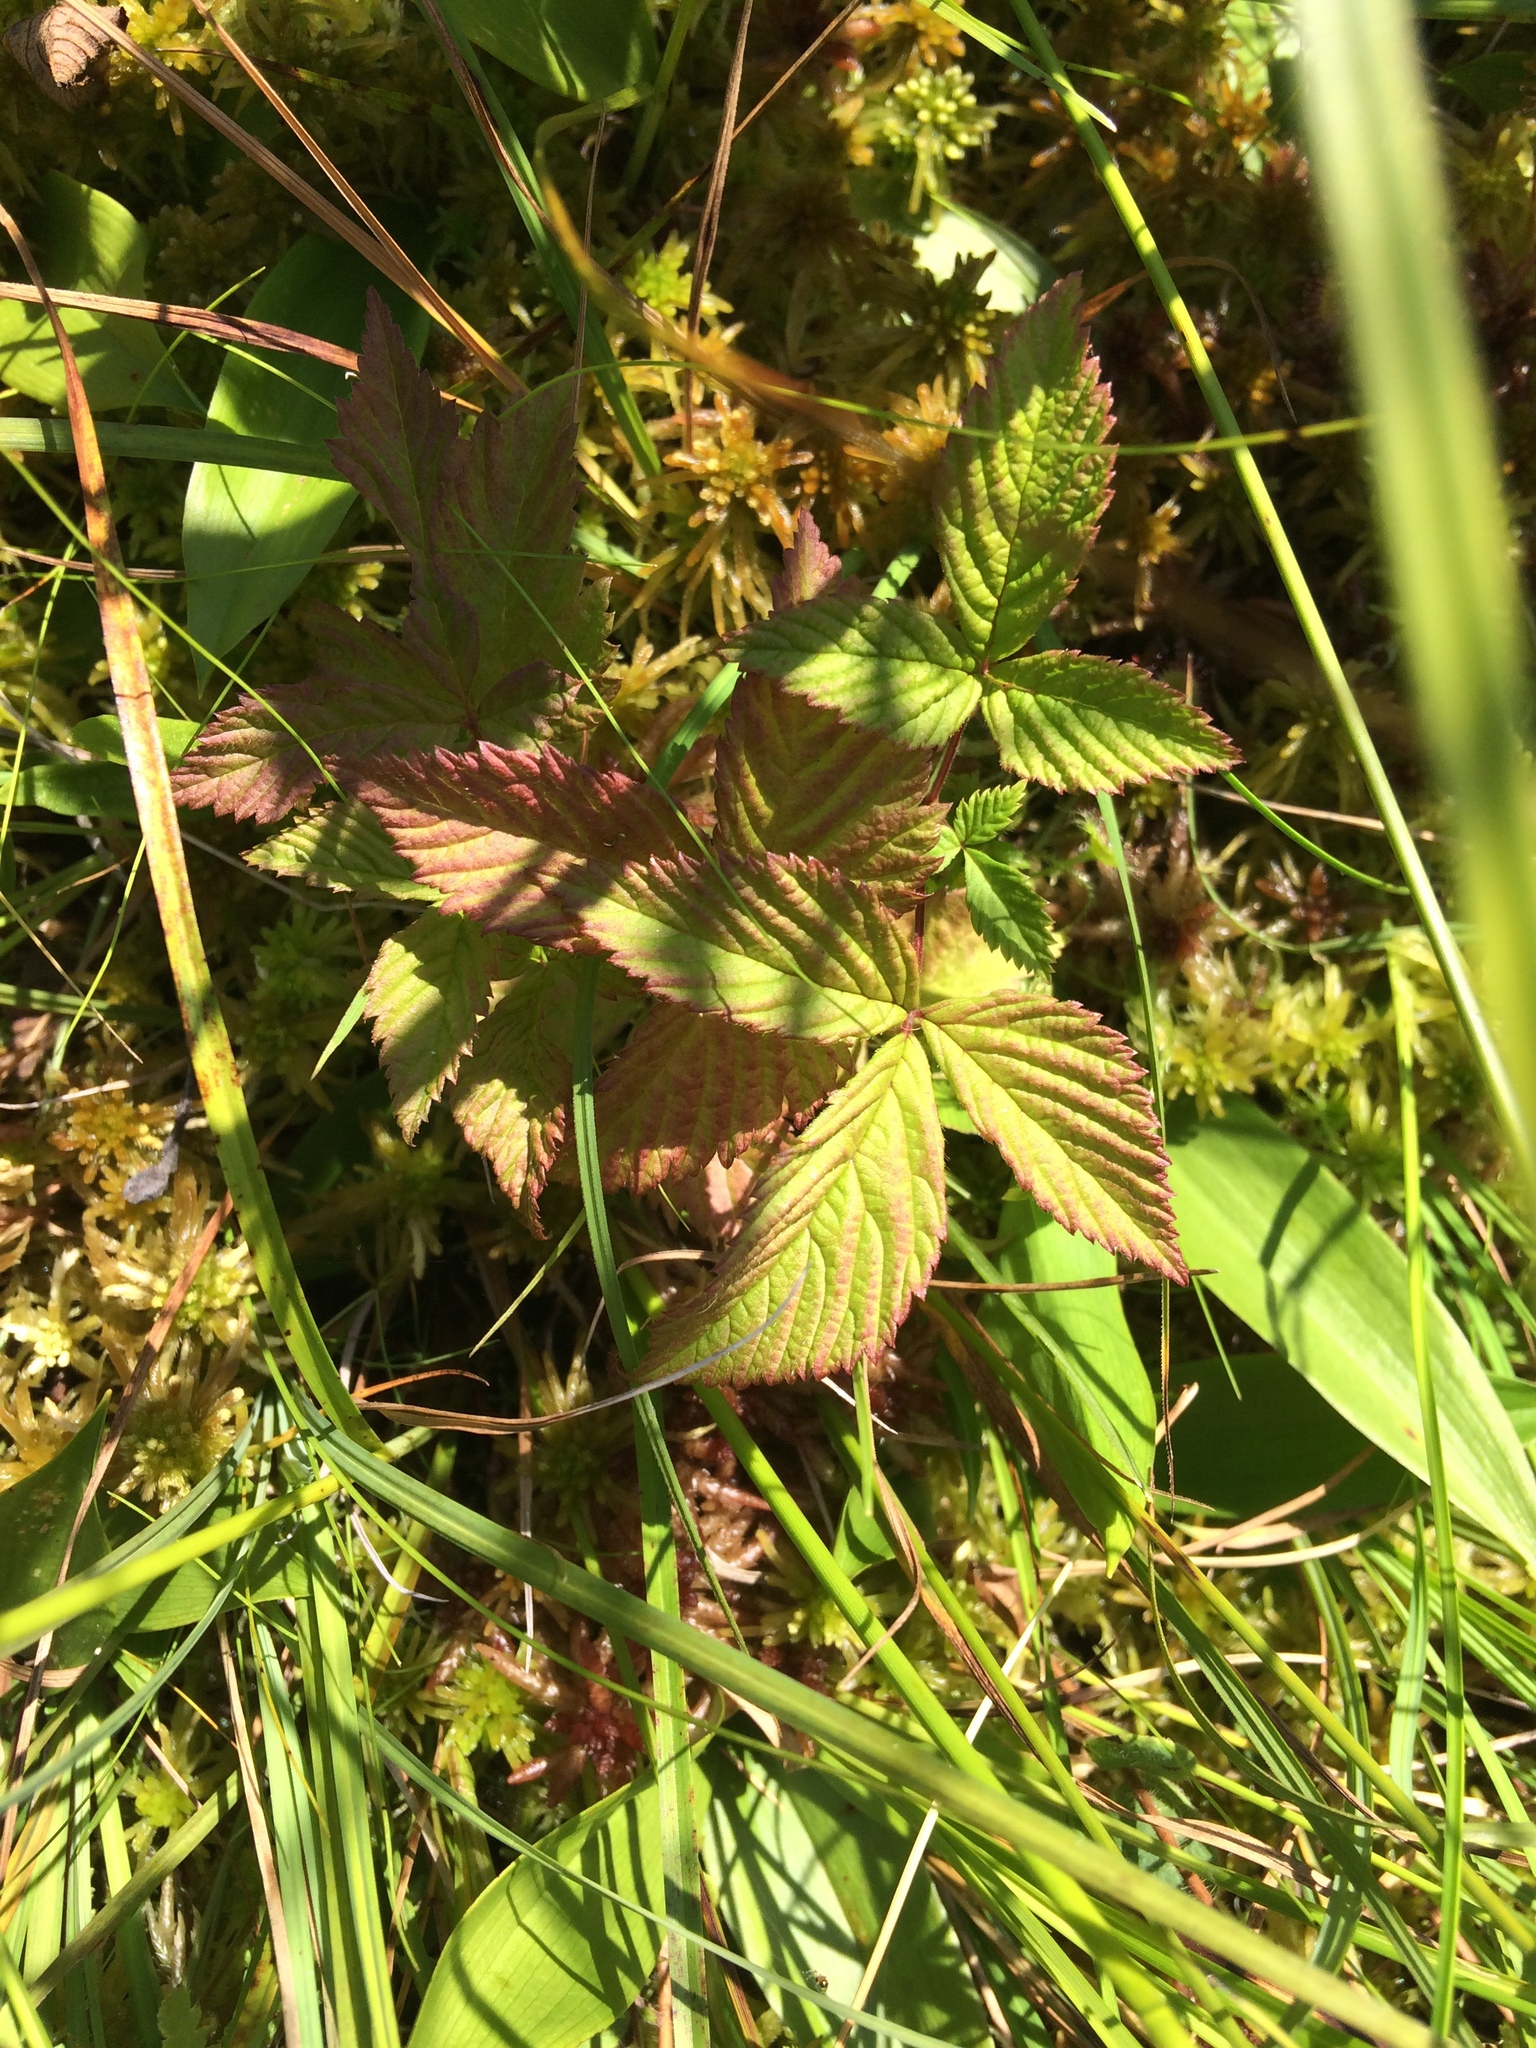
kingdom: Plantae
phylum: Tracheophyta
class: Magnoliopsida
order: Rosales
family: Rosaceae
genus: Rubus
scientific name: Rubus pubescens
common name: Dwarf raspberry
